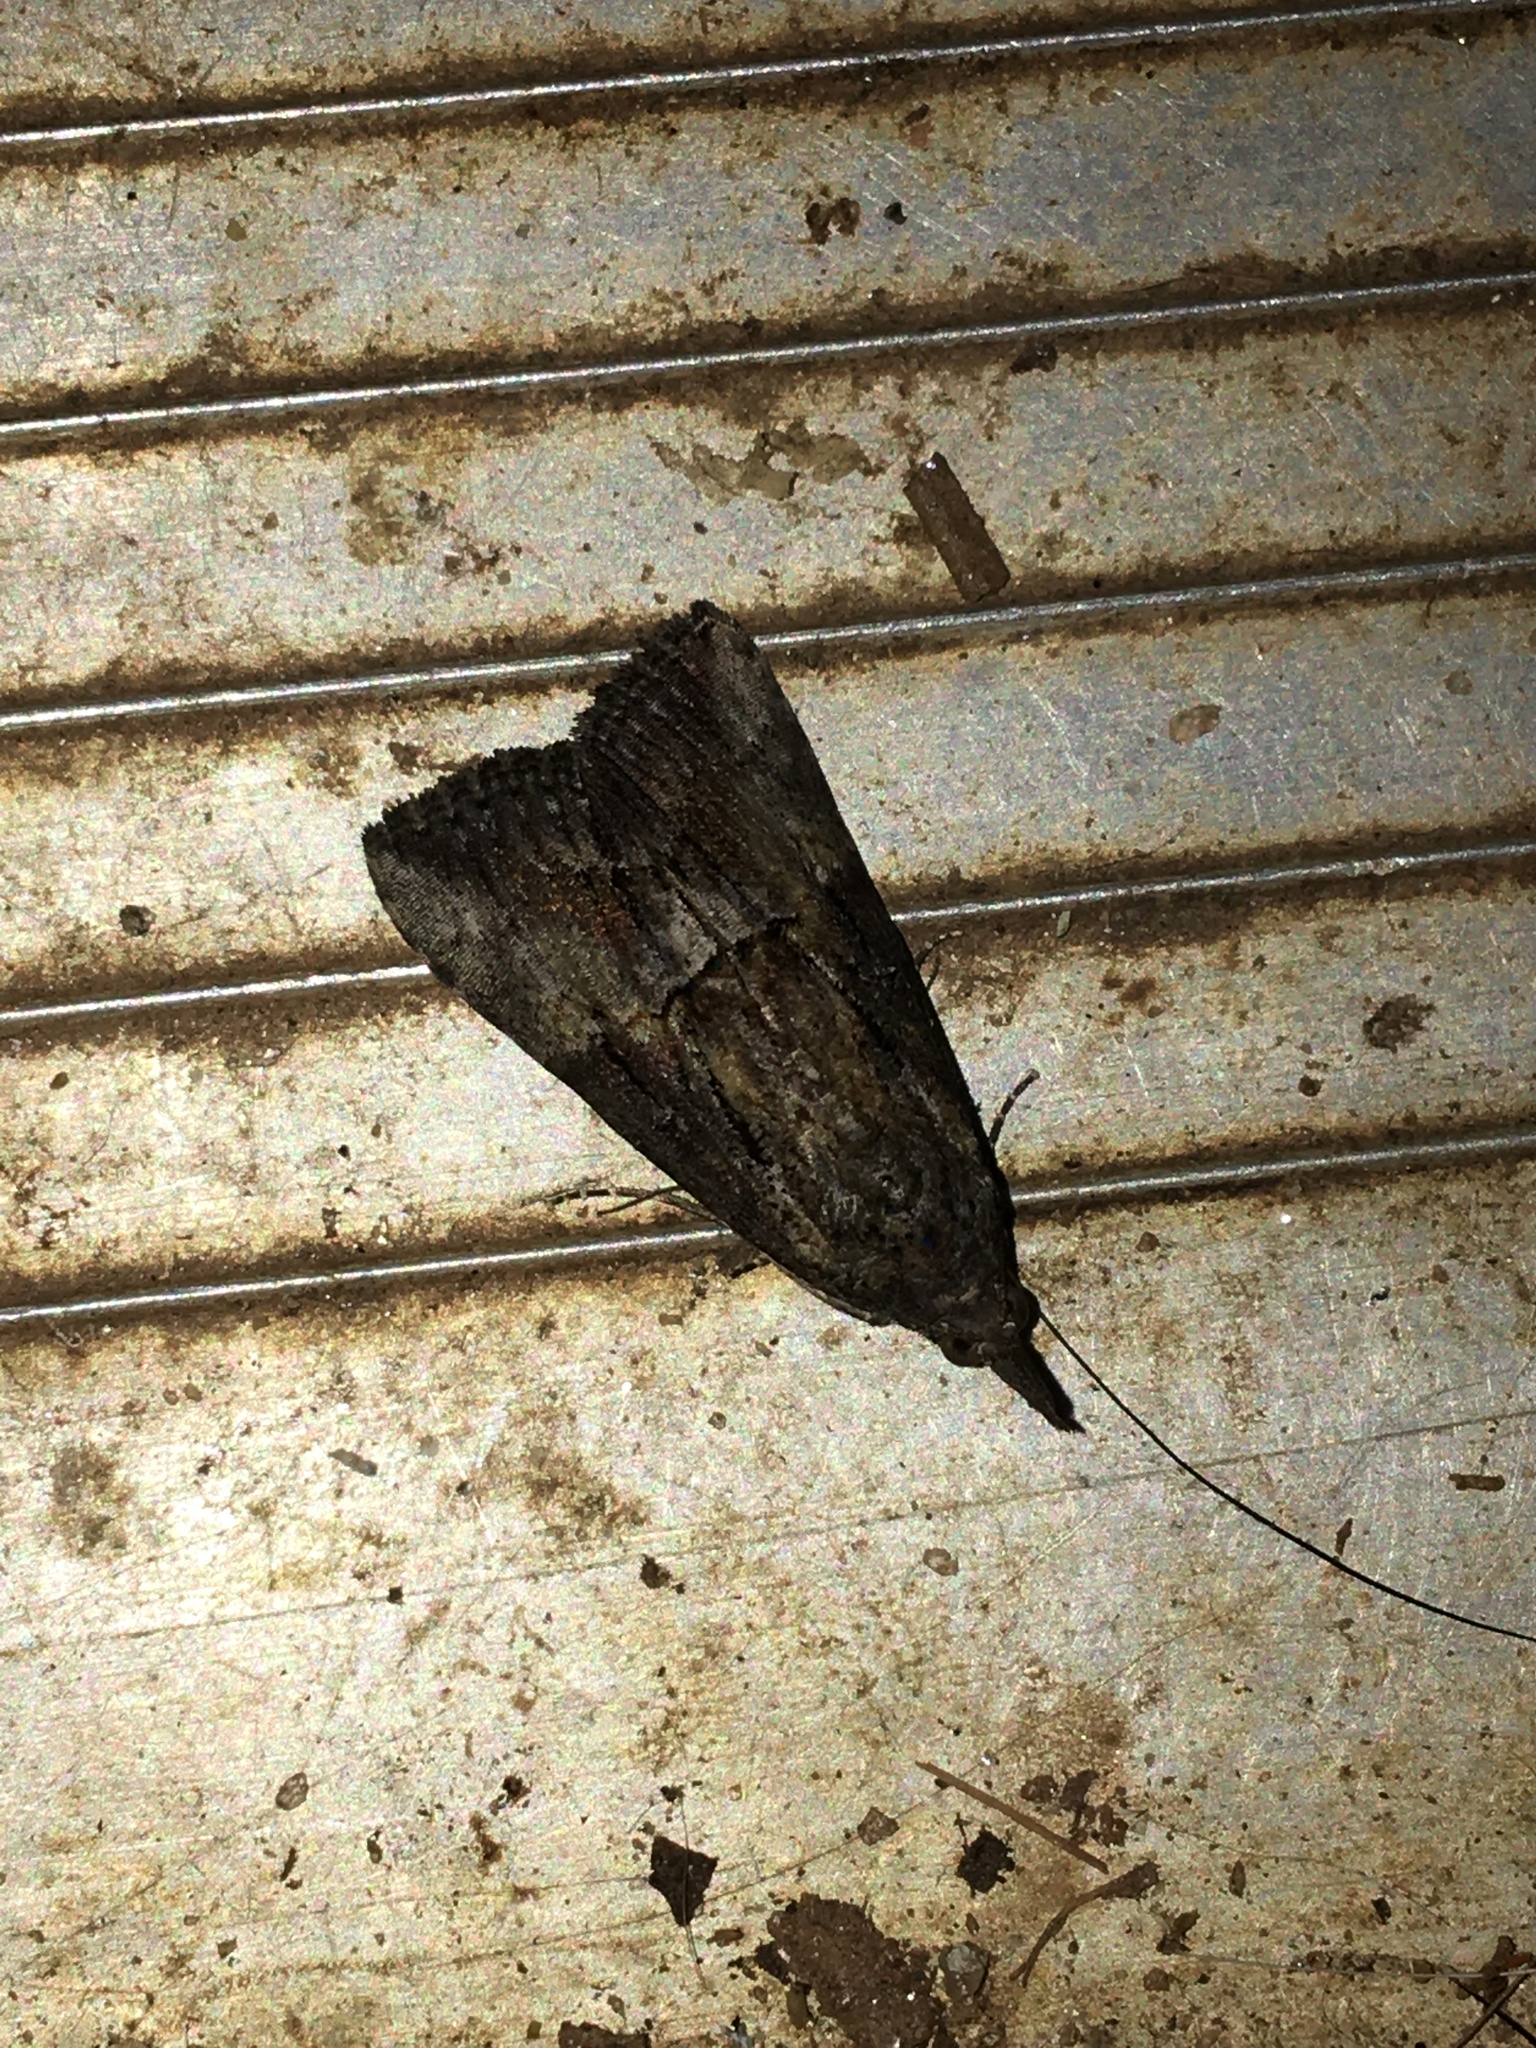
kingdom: Animalia
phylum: Arthropoda
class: Insecta
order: Lepidoptera
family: Erebidae
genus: Hypena
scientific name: Hypena scabra
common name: Green cloverworm
